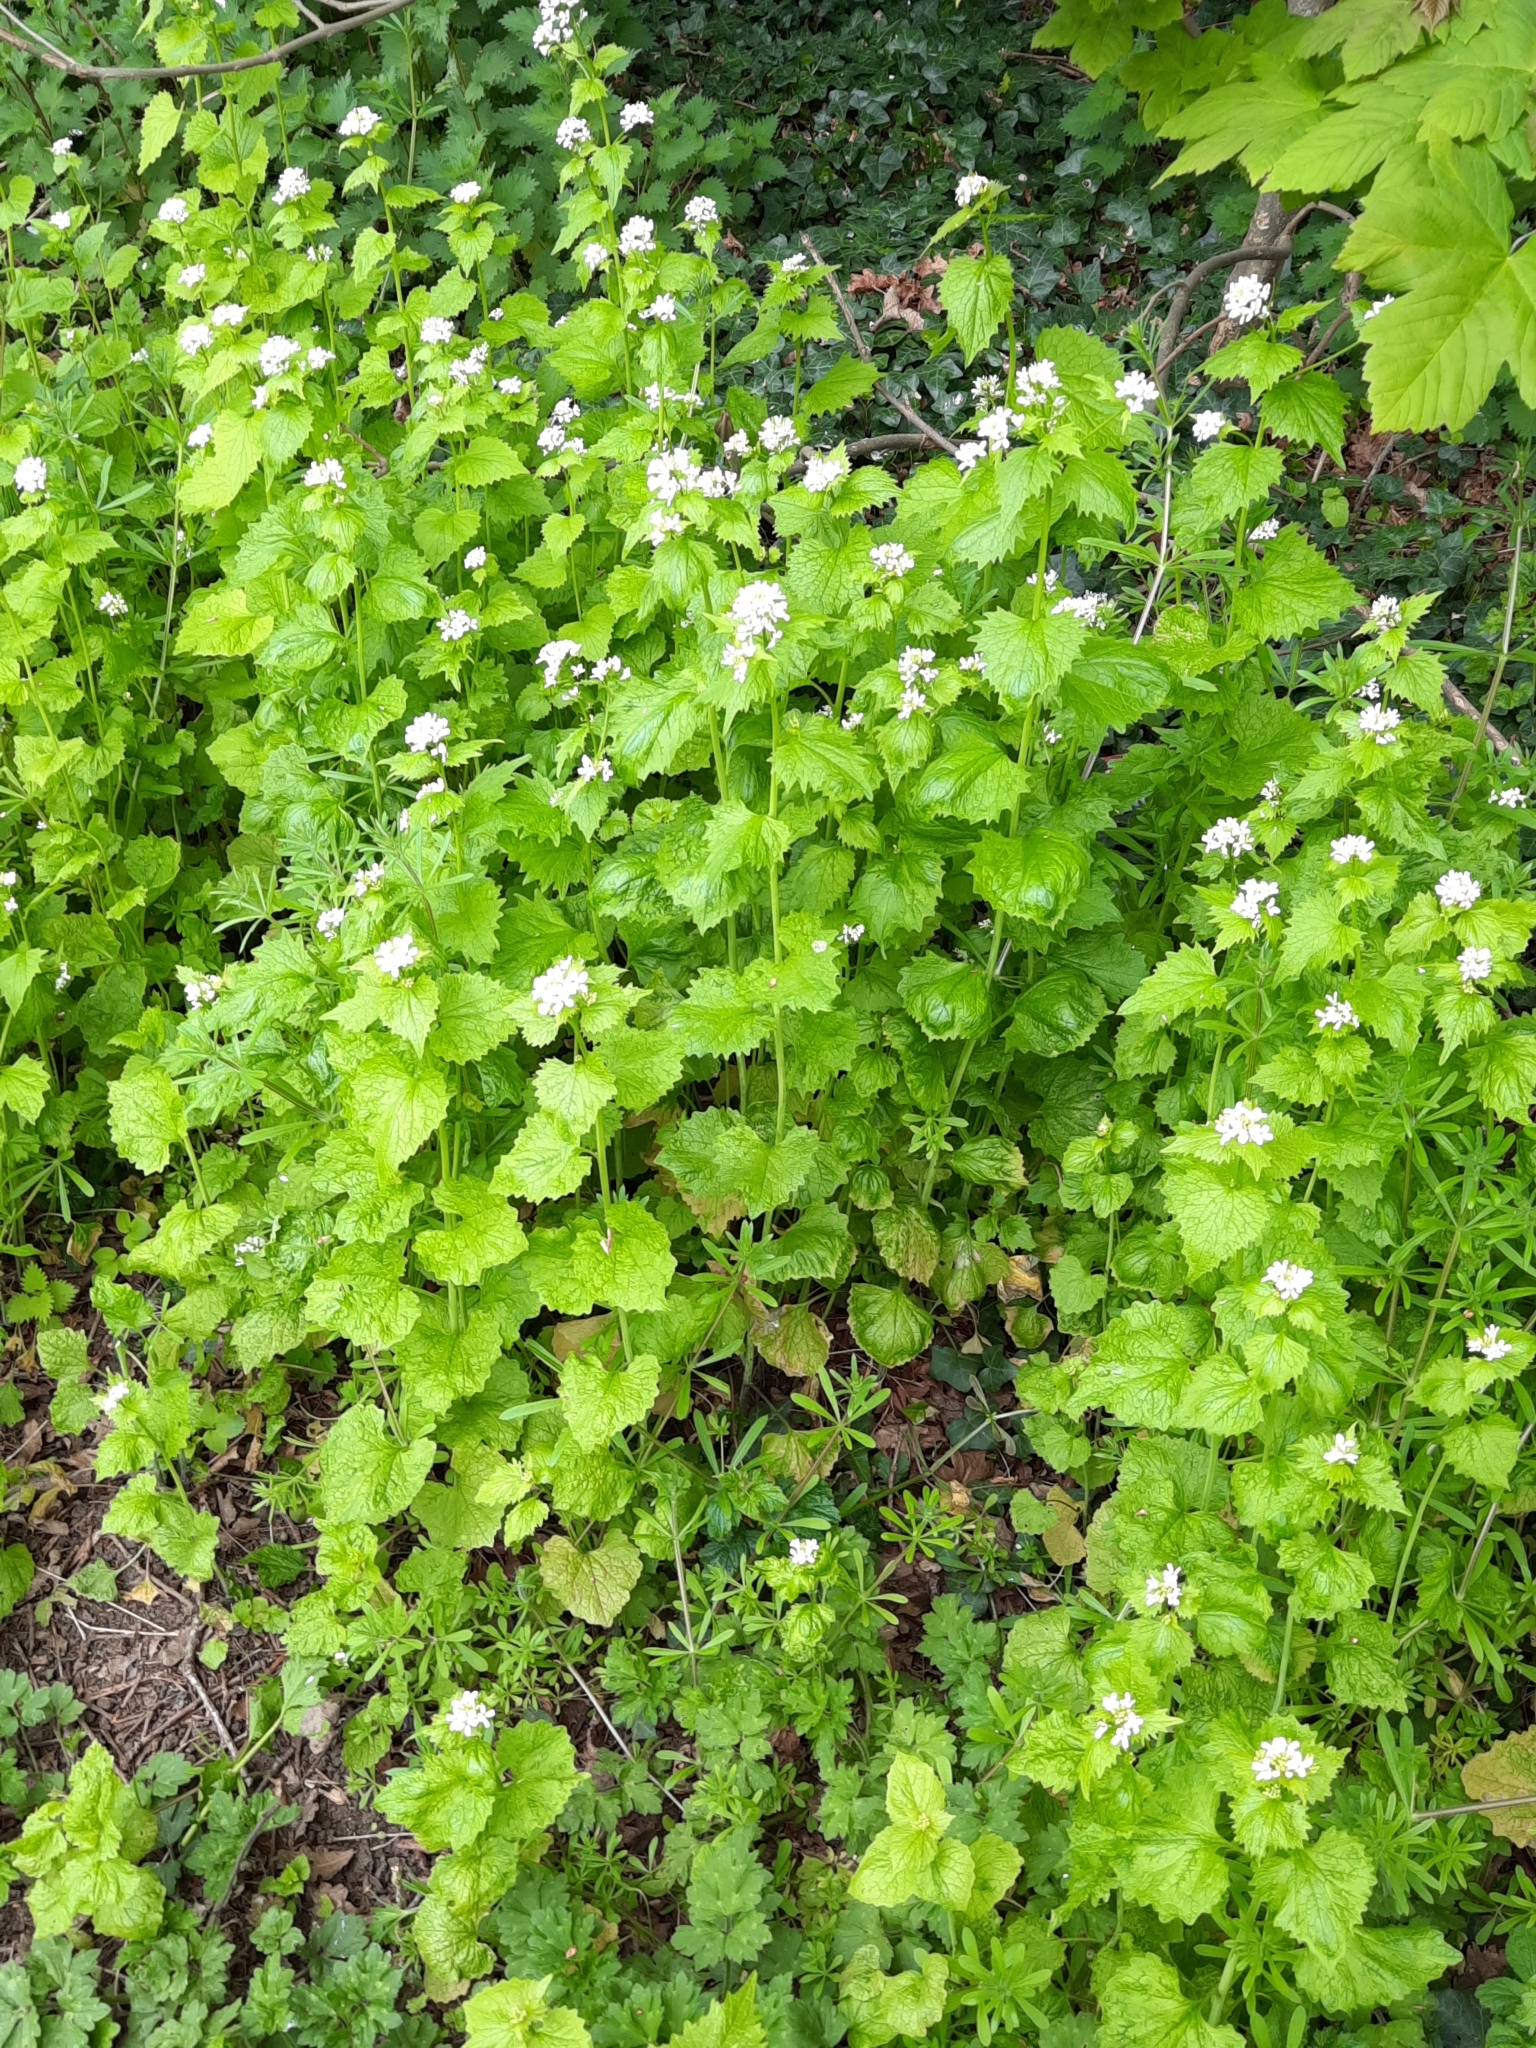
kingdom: Plantae
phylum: Tracheophyta
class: Magnoliopsida
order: Brassicales
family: Brassicaceae
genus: Alliaria
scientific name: Alliaria petiolata
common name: Garlic mustard
